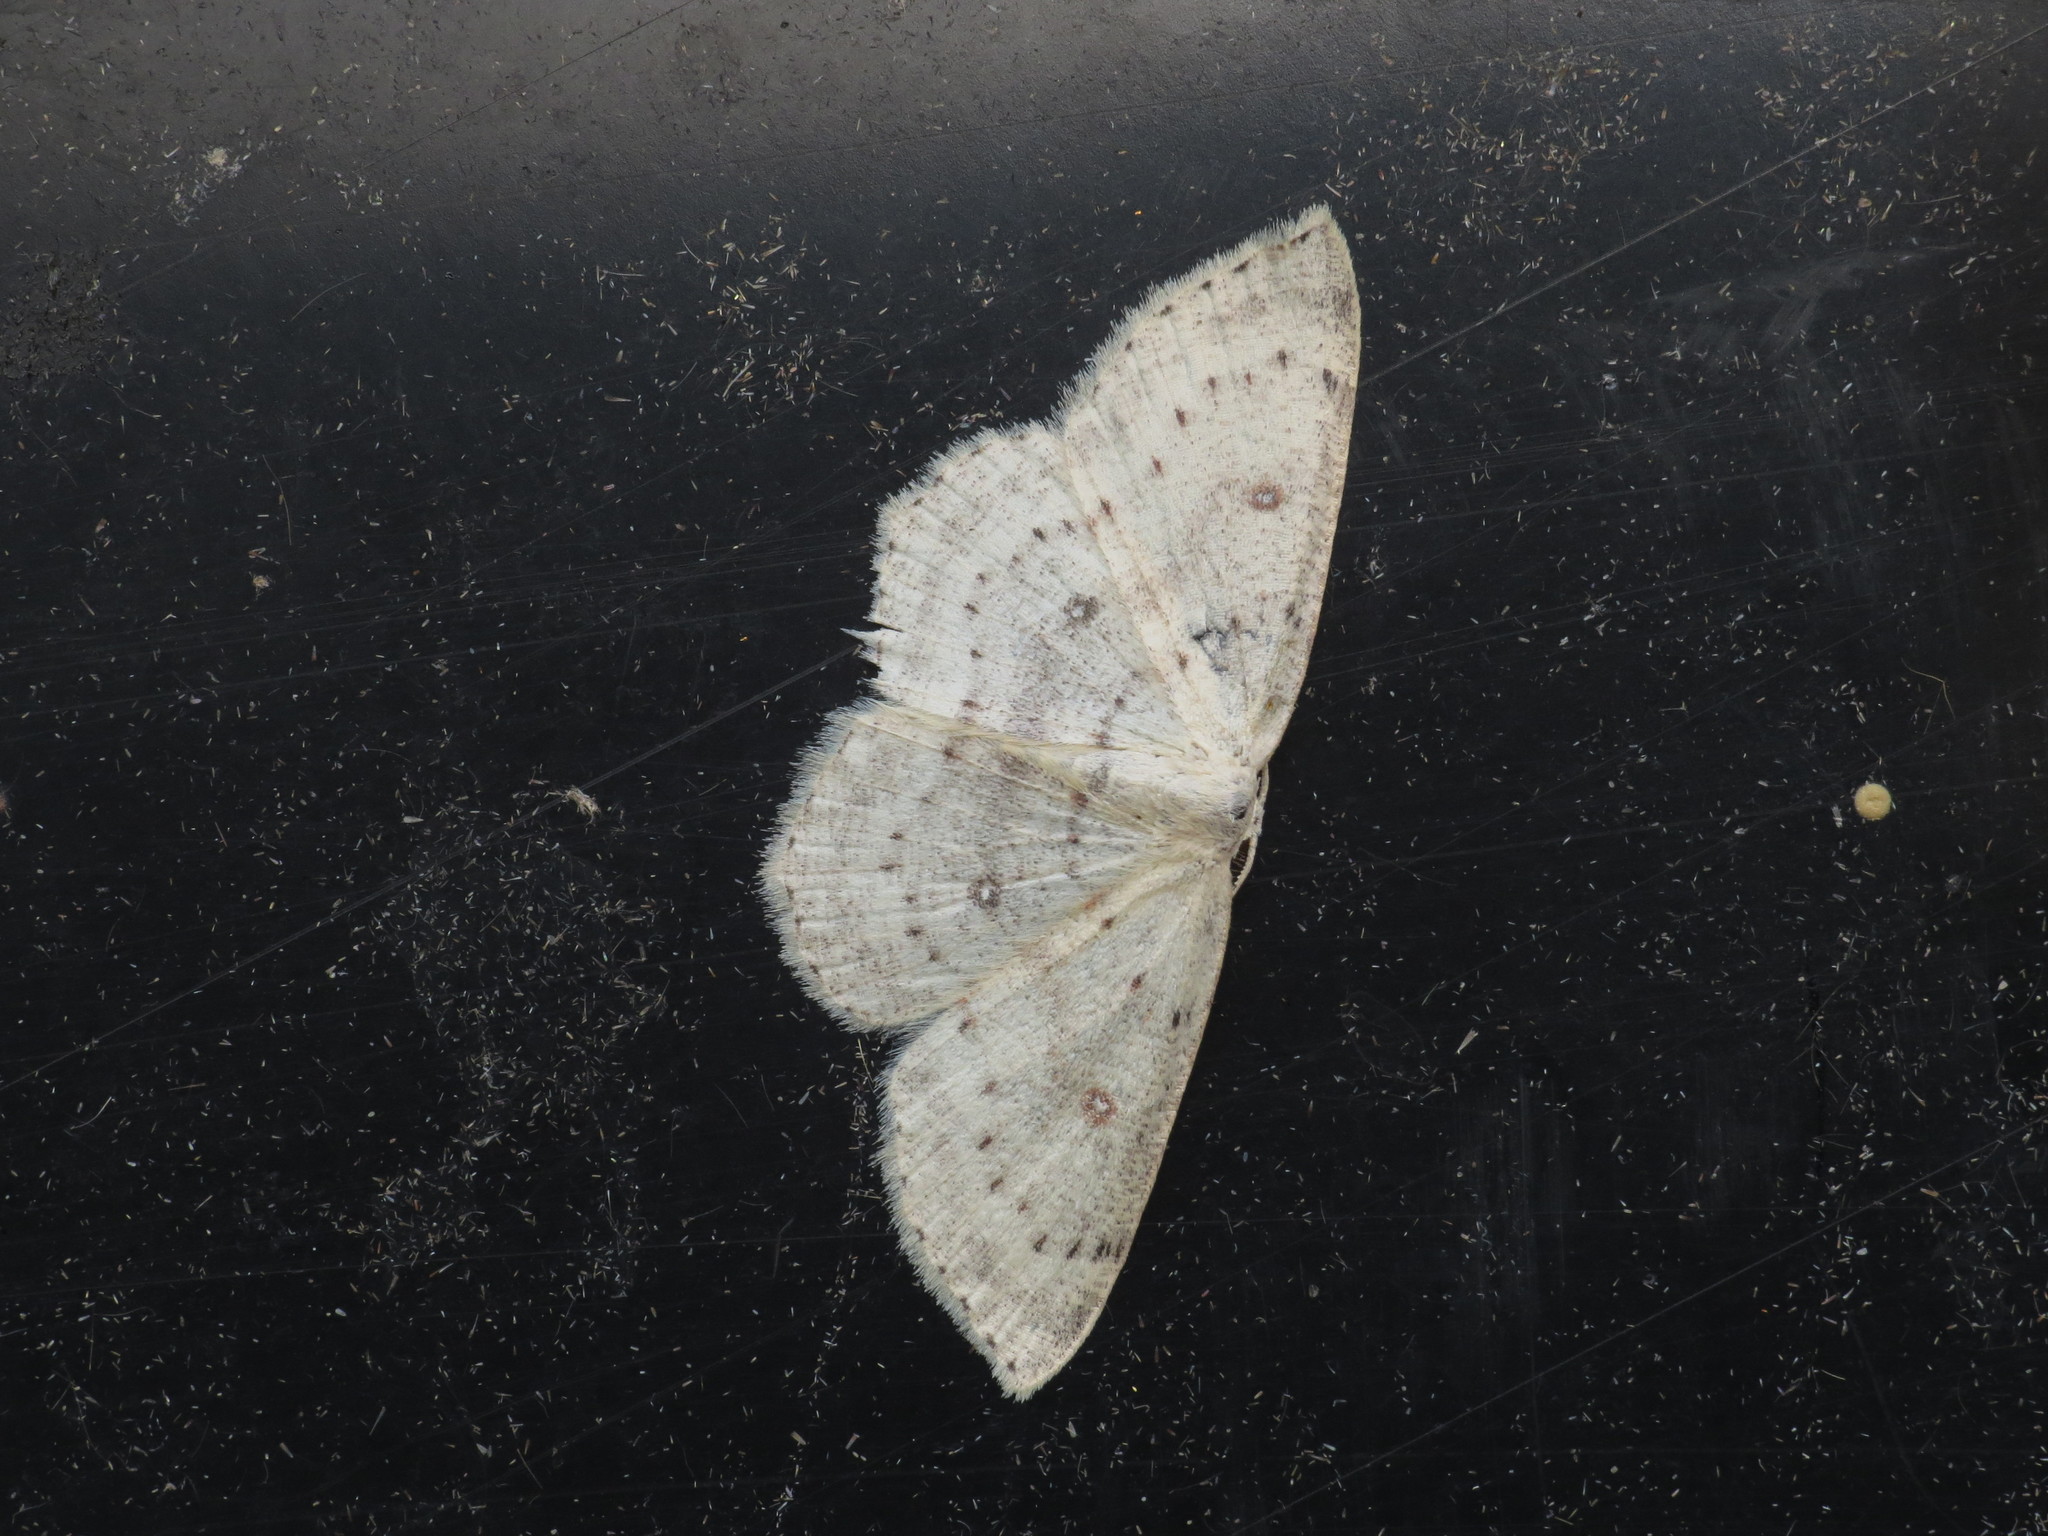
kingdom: Animalia
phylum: Arthropoda
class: Insecta
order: Lepidoptera
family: Geometridae
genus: Cyclophora
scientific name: Cyclophora albipunctata
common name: Birch mocha
